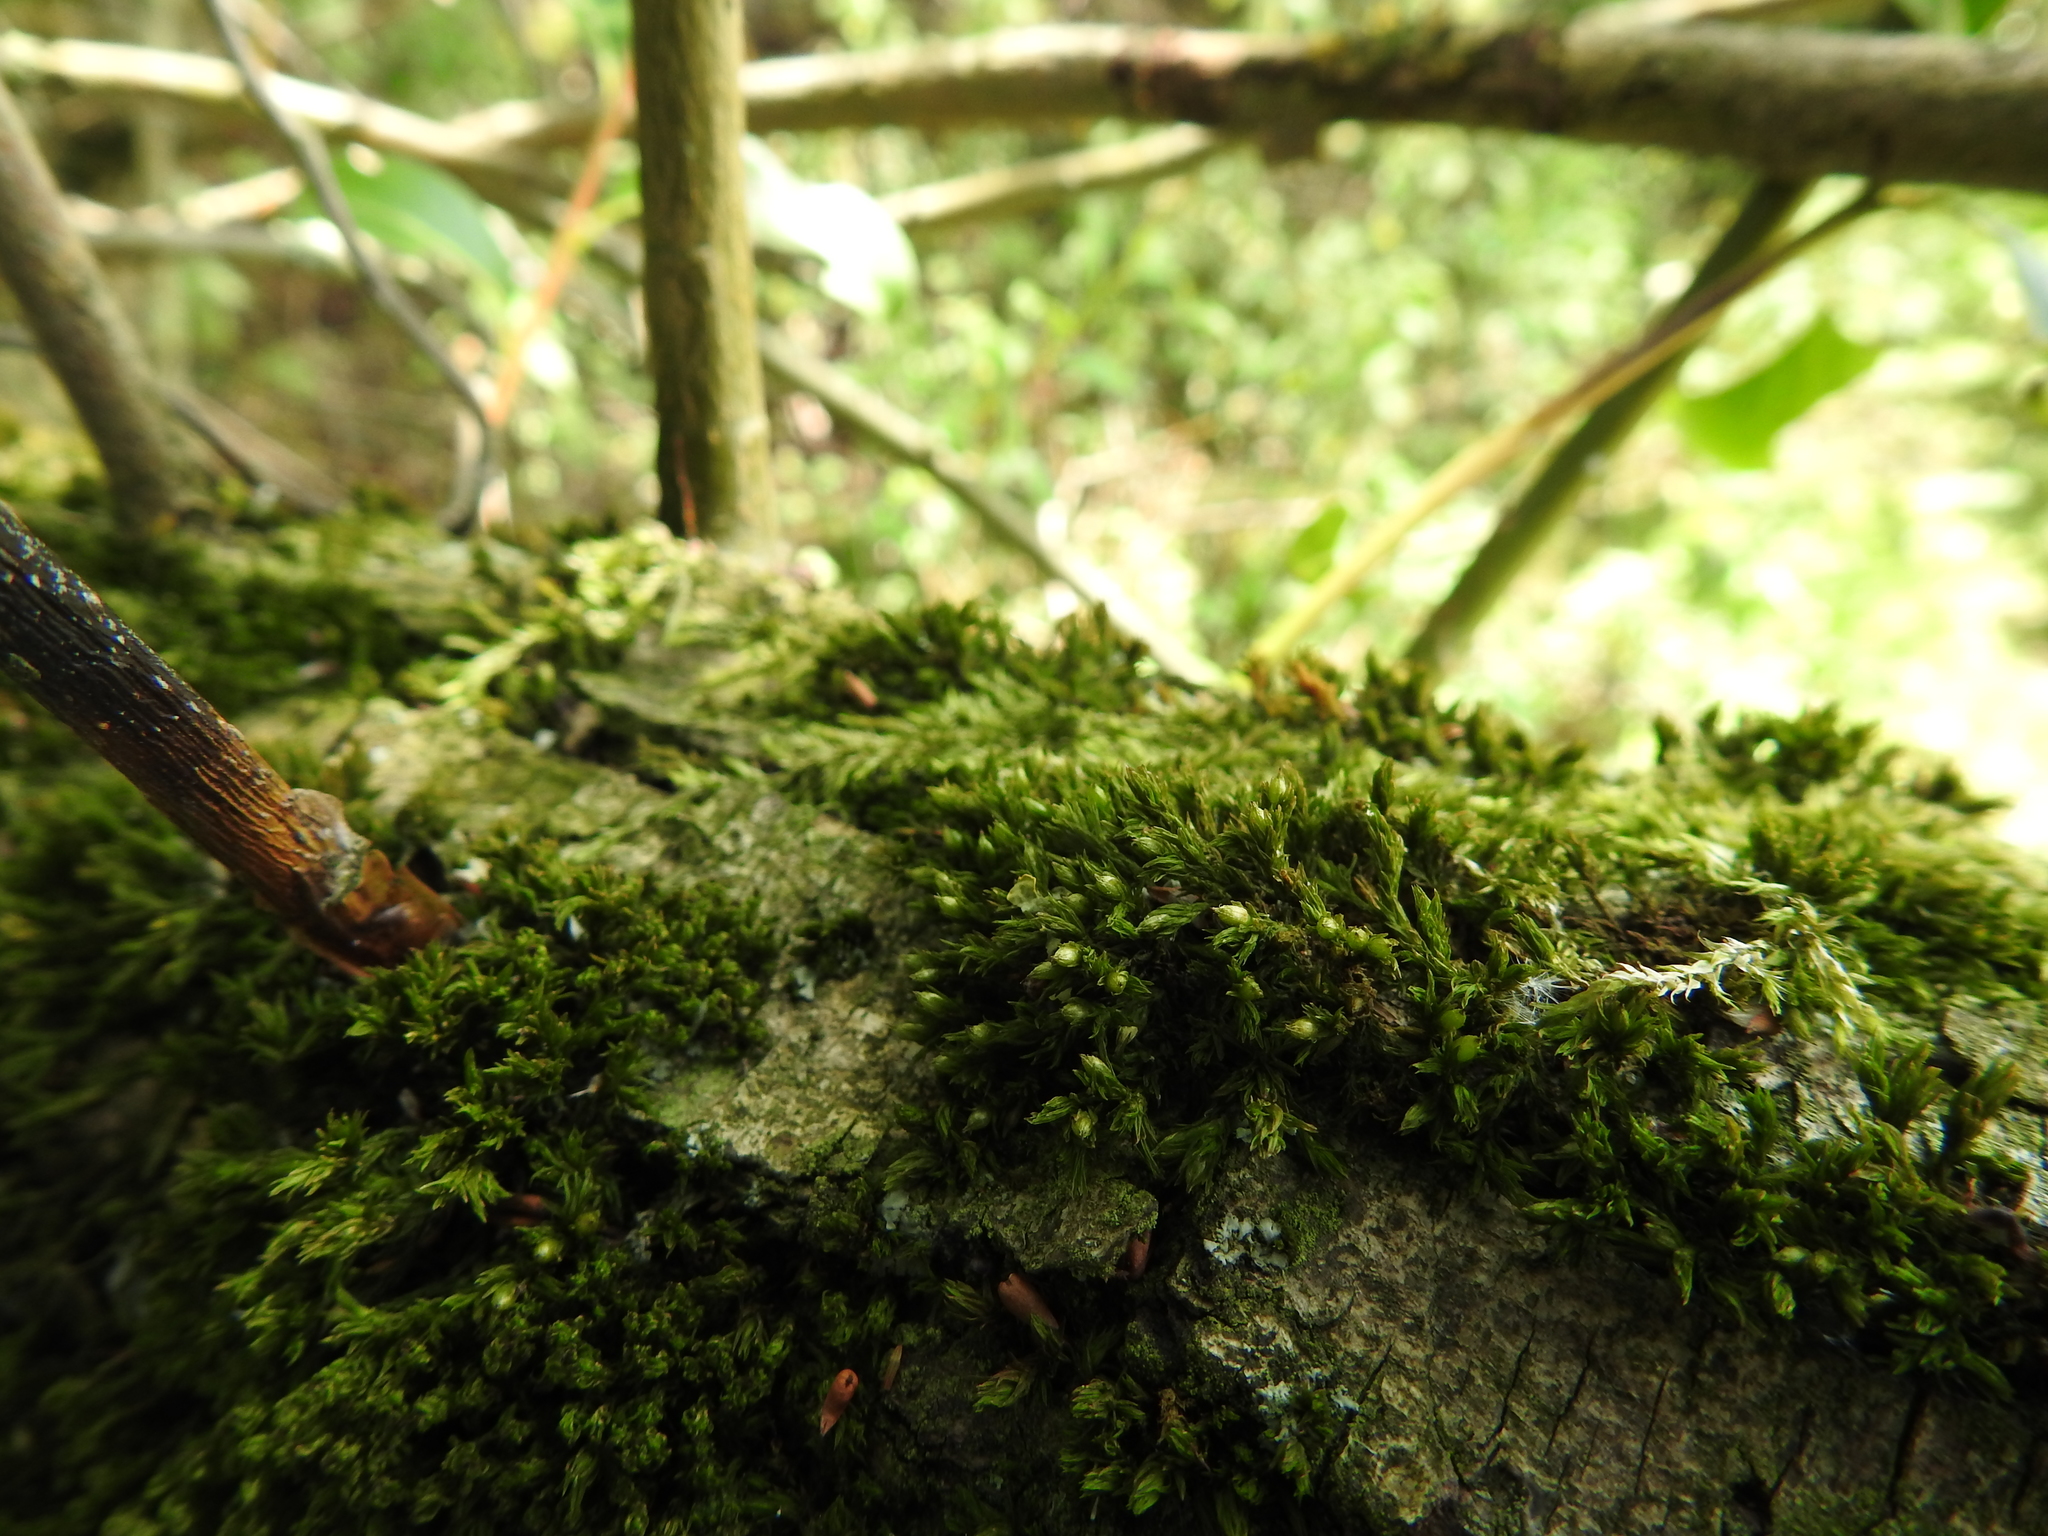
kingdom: Plantae
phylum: Bryophyta
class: Bryopsida
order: Orthotrichales
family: Orthotrichaceae
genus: Orthotrichum
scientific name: Orthotrichum stramineum
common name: Straw bristle-moss
